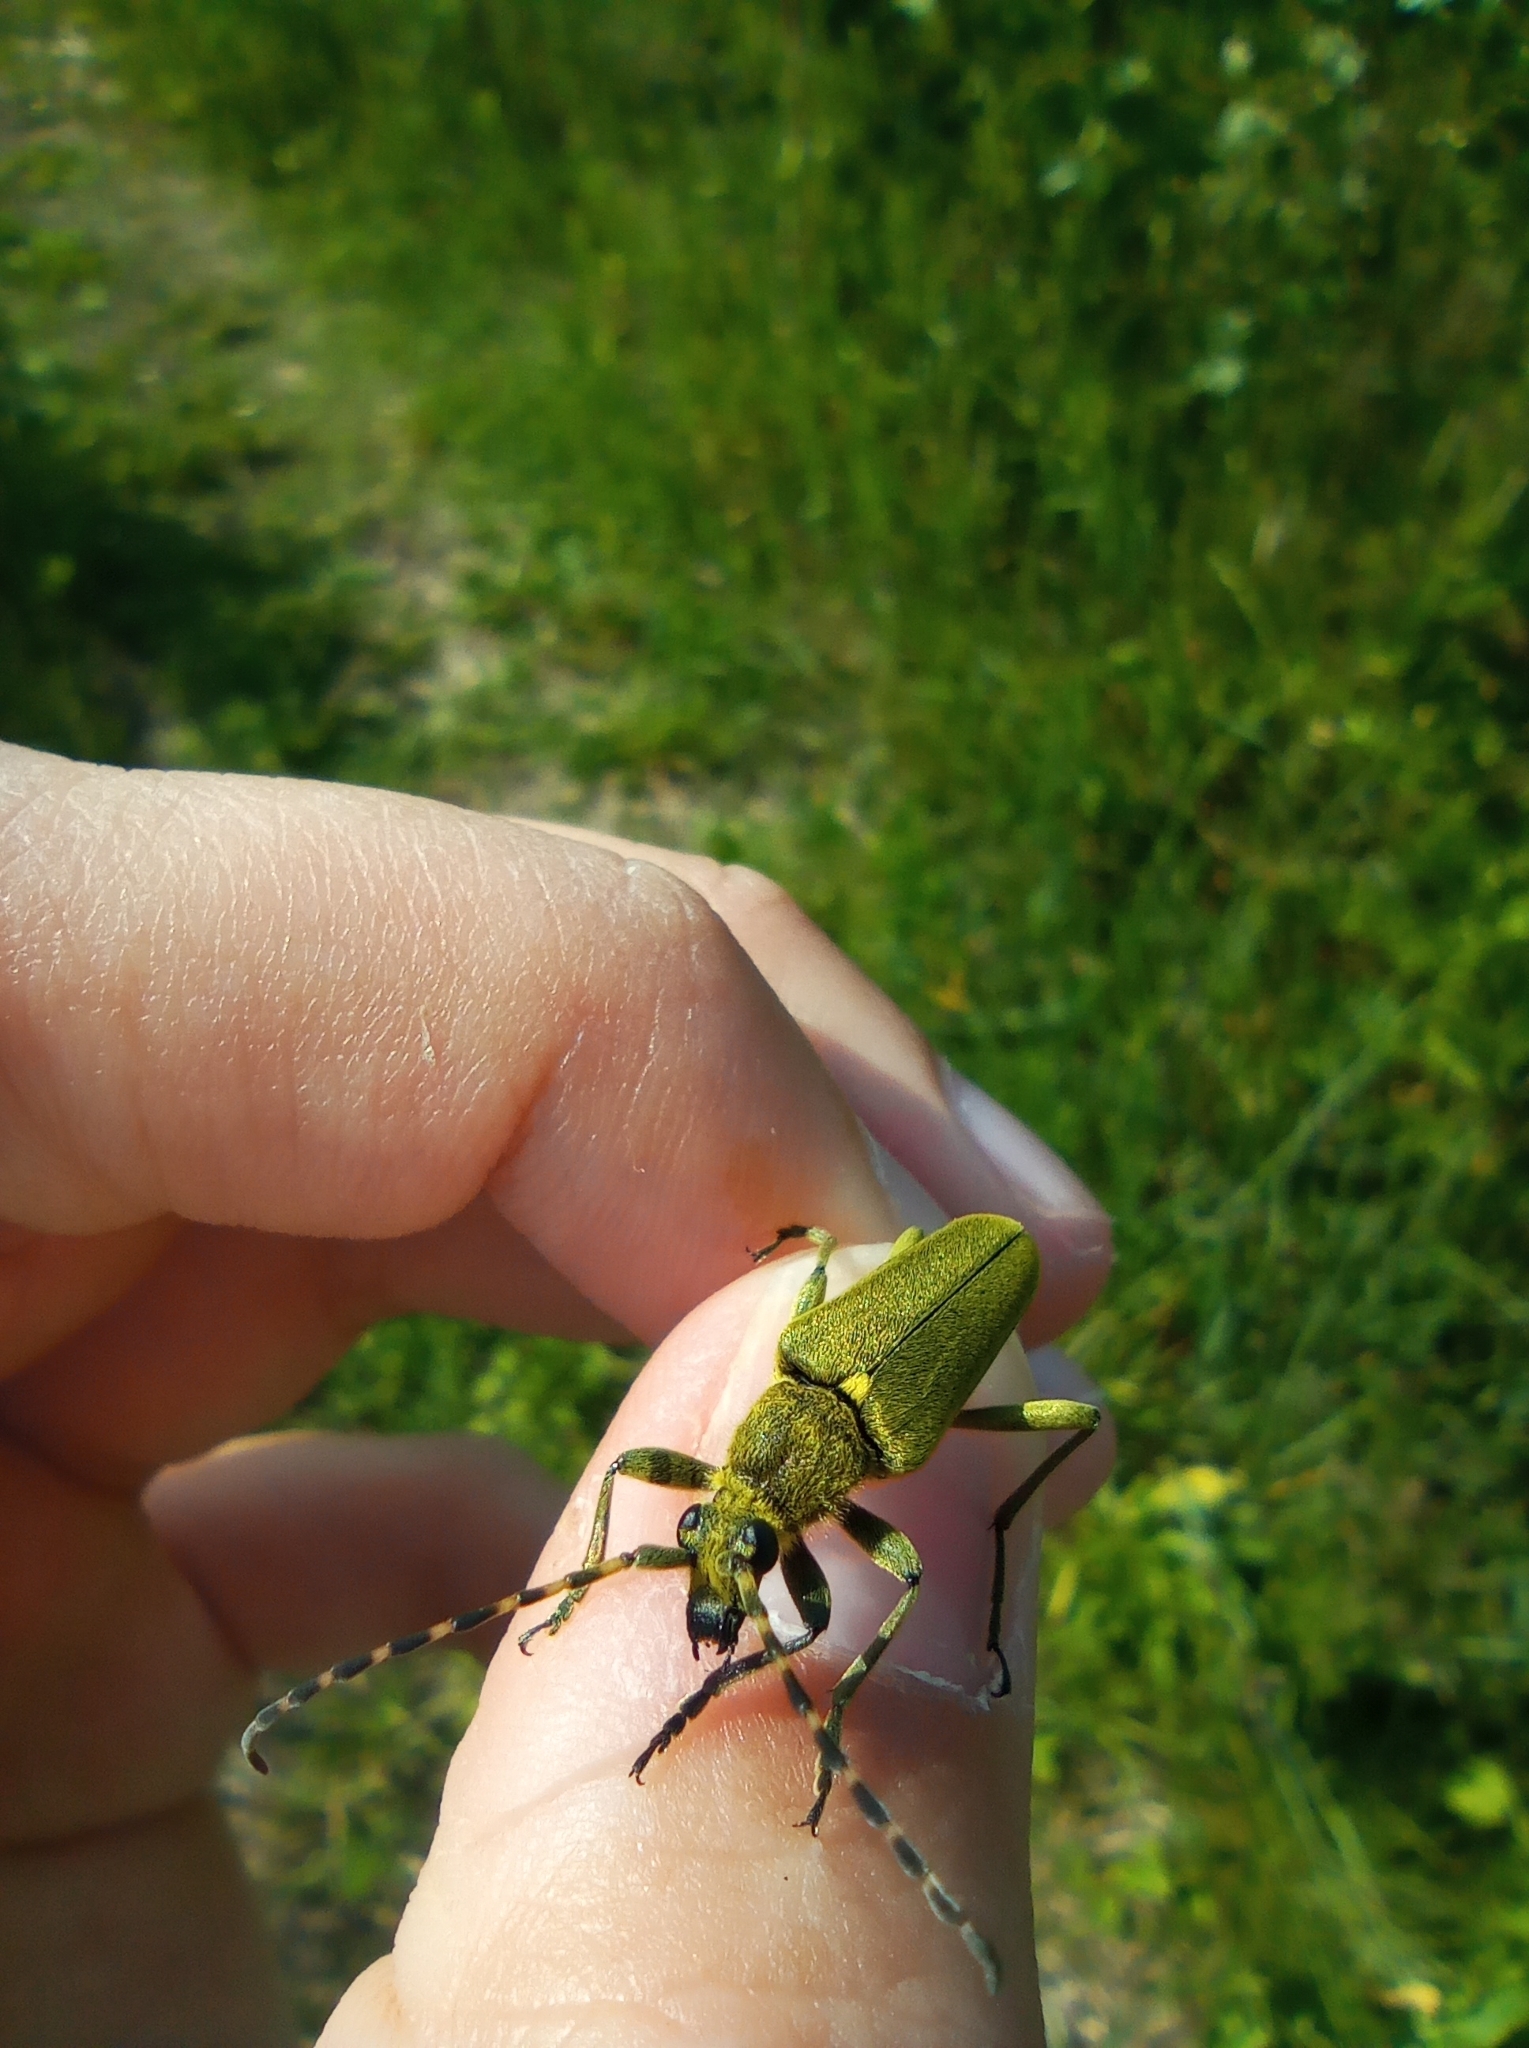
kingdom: Animalia
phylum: Arthropoda
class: Insecta
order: Coleoptera
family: Cerambycidae
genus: Lepturobosca
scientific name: Lepturobosca virens
